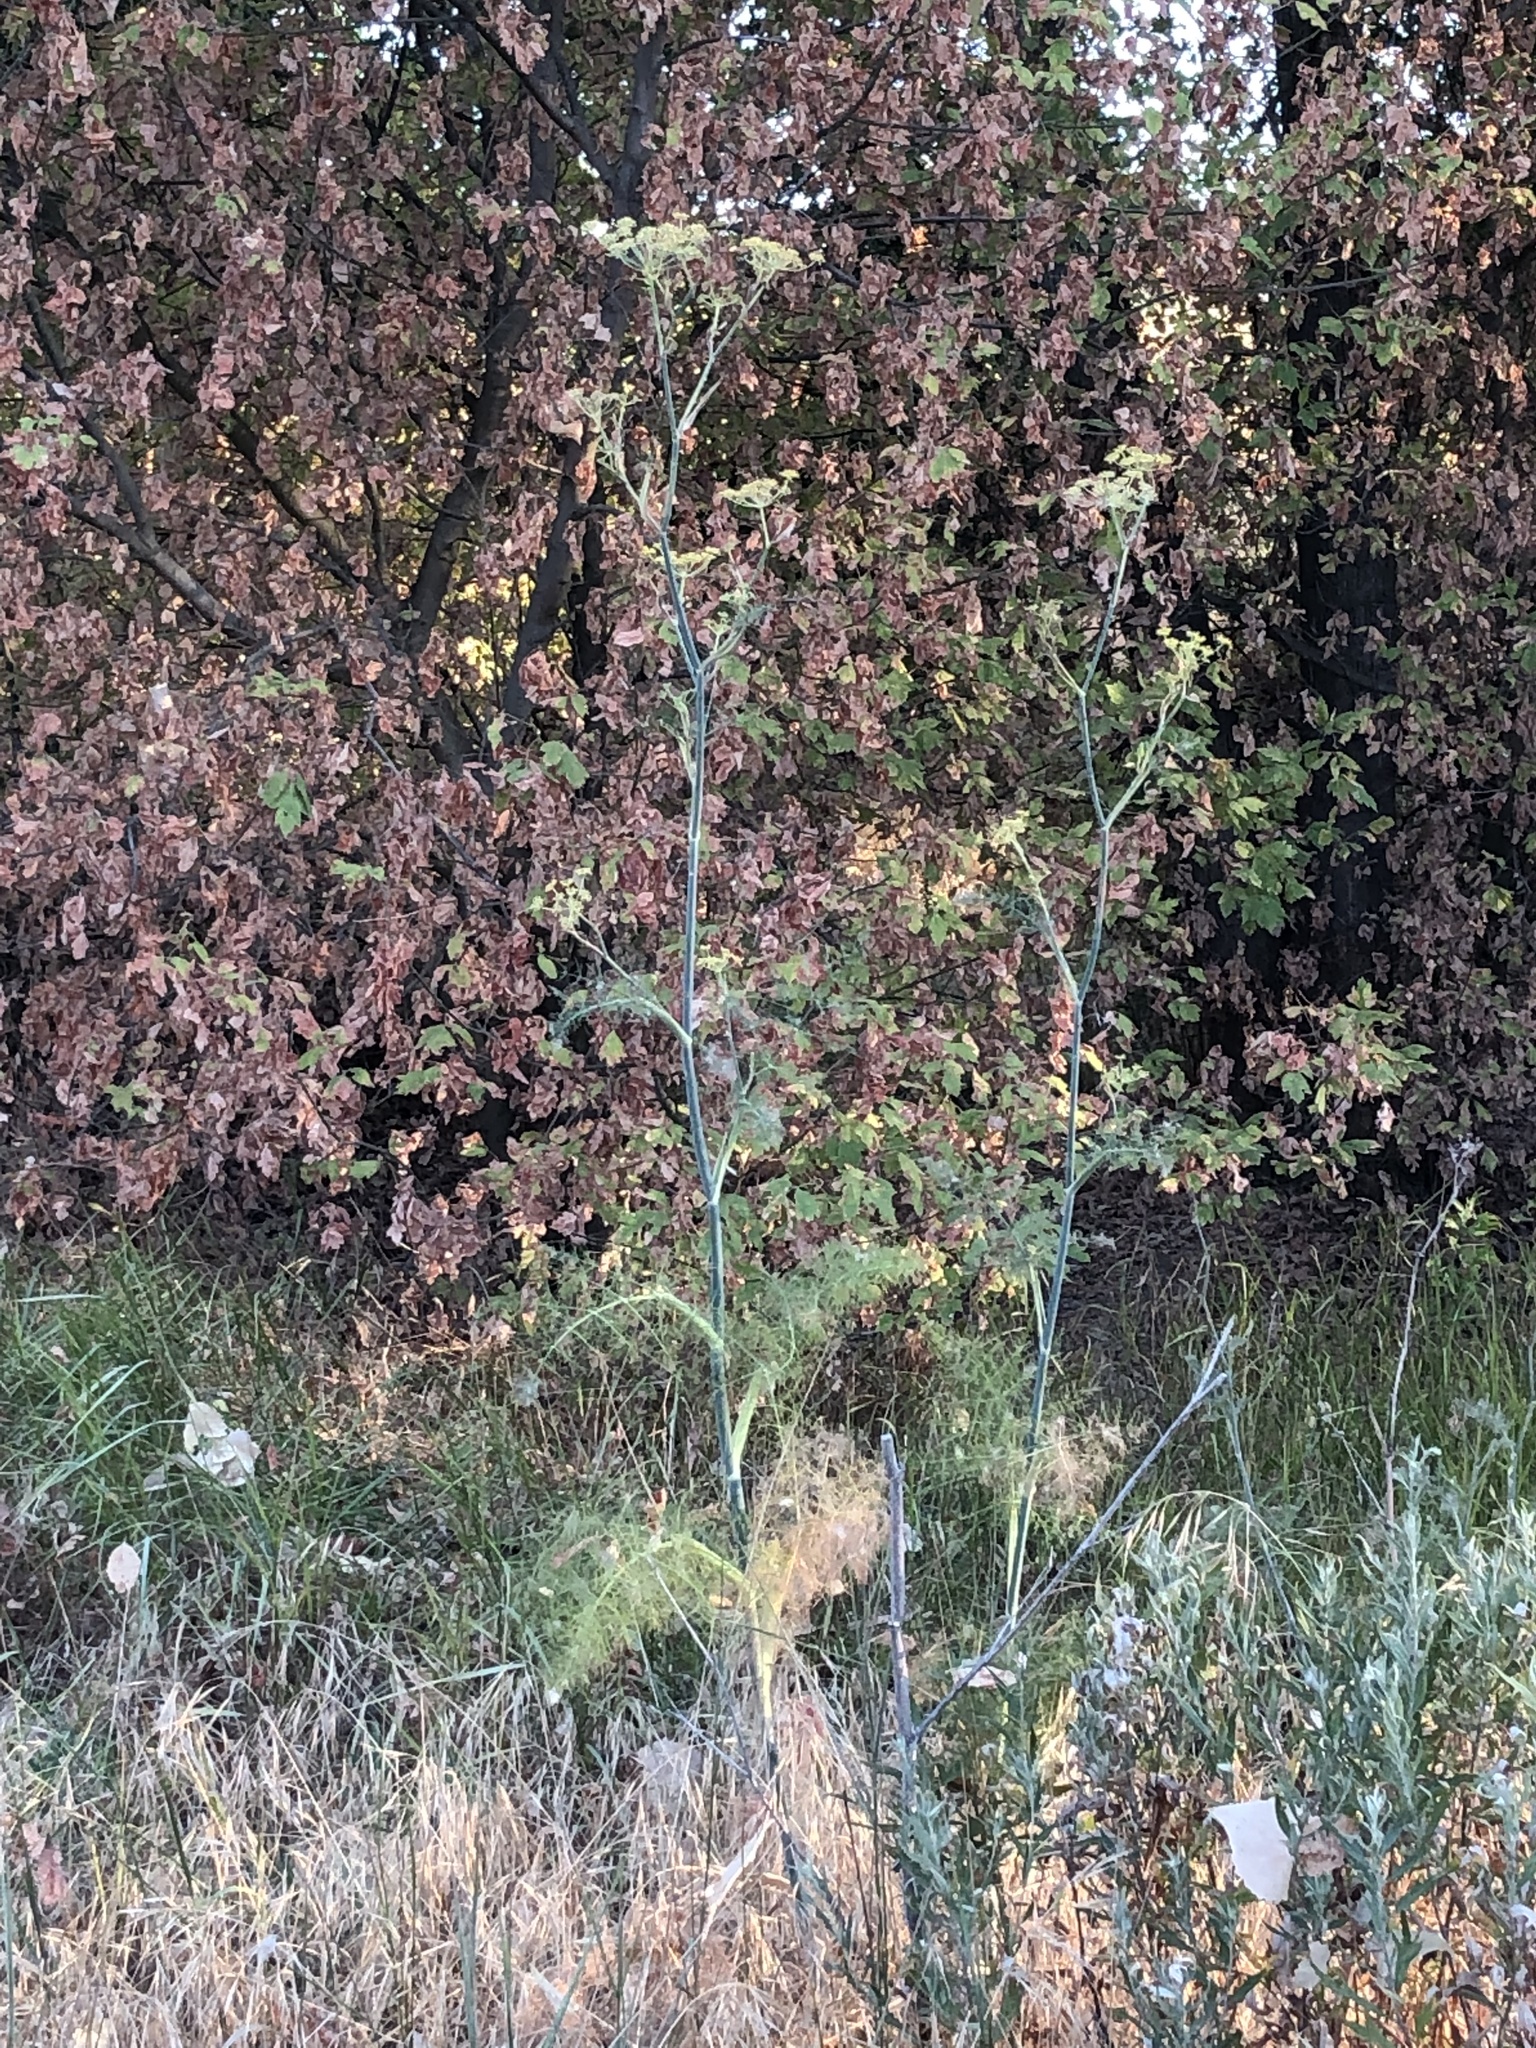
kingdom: Plantae
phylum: Tracheophyta
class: Magnoliopsida
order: Apiales
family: Apiaceae
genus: Foeniculum
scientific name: Foeniculum vulgare
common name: Fennel
